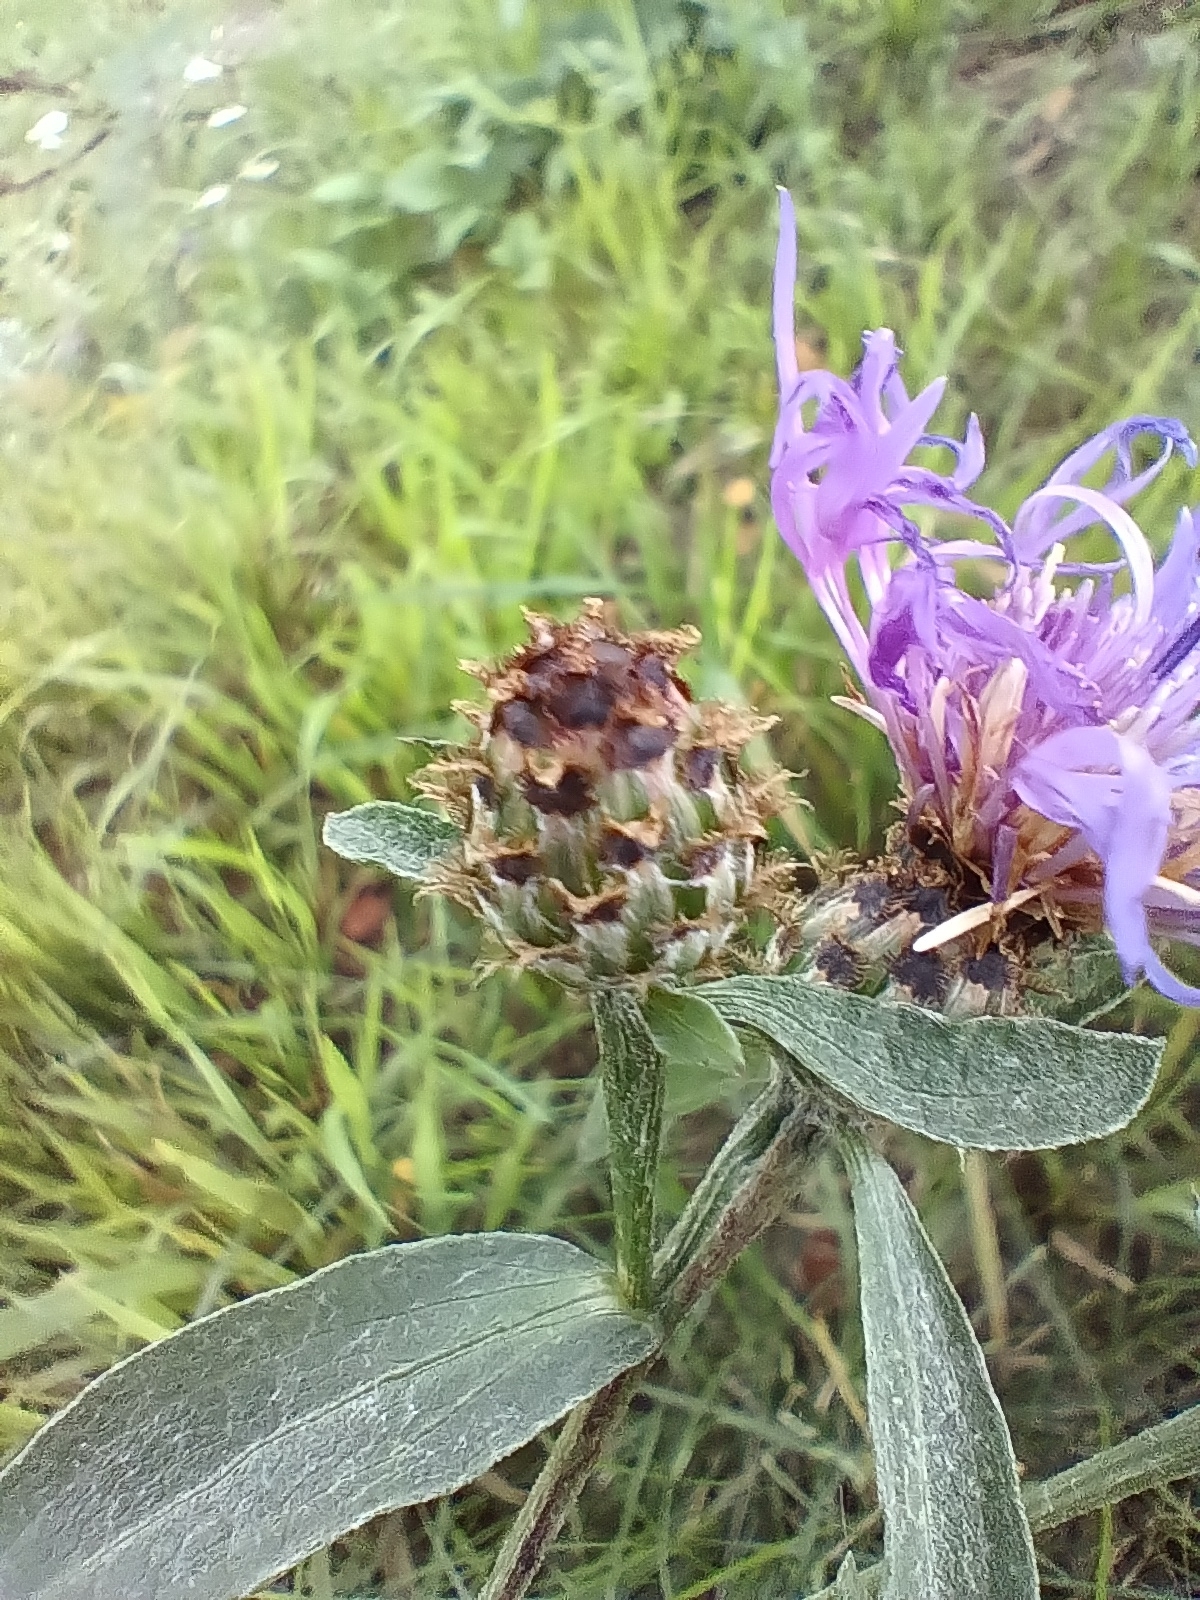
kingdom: Plantae
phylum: Tracheophyta
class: Magnoliopsida
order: Asterales
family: Asteraceae
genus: Centaurea
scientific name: Centaurea fleischeri
